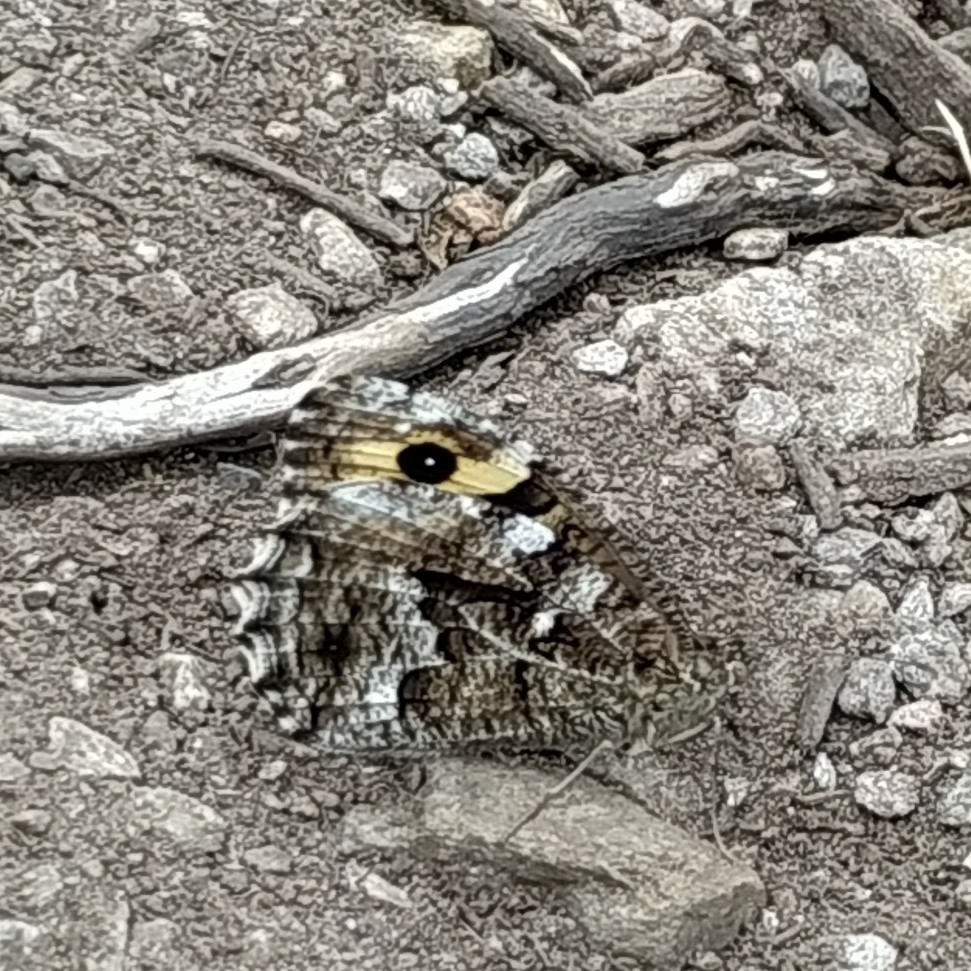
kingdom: Animalia
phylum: Arthropoda
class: Insecta
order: Lepidoptera
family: Nymphalidae
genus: Hipparchia
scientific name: Hipparchia semele
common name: Grayling
